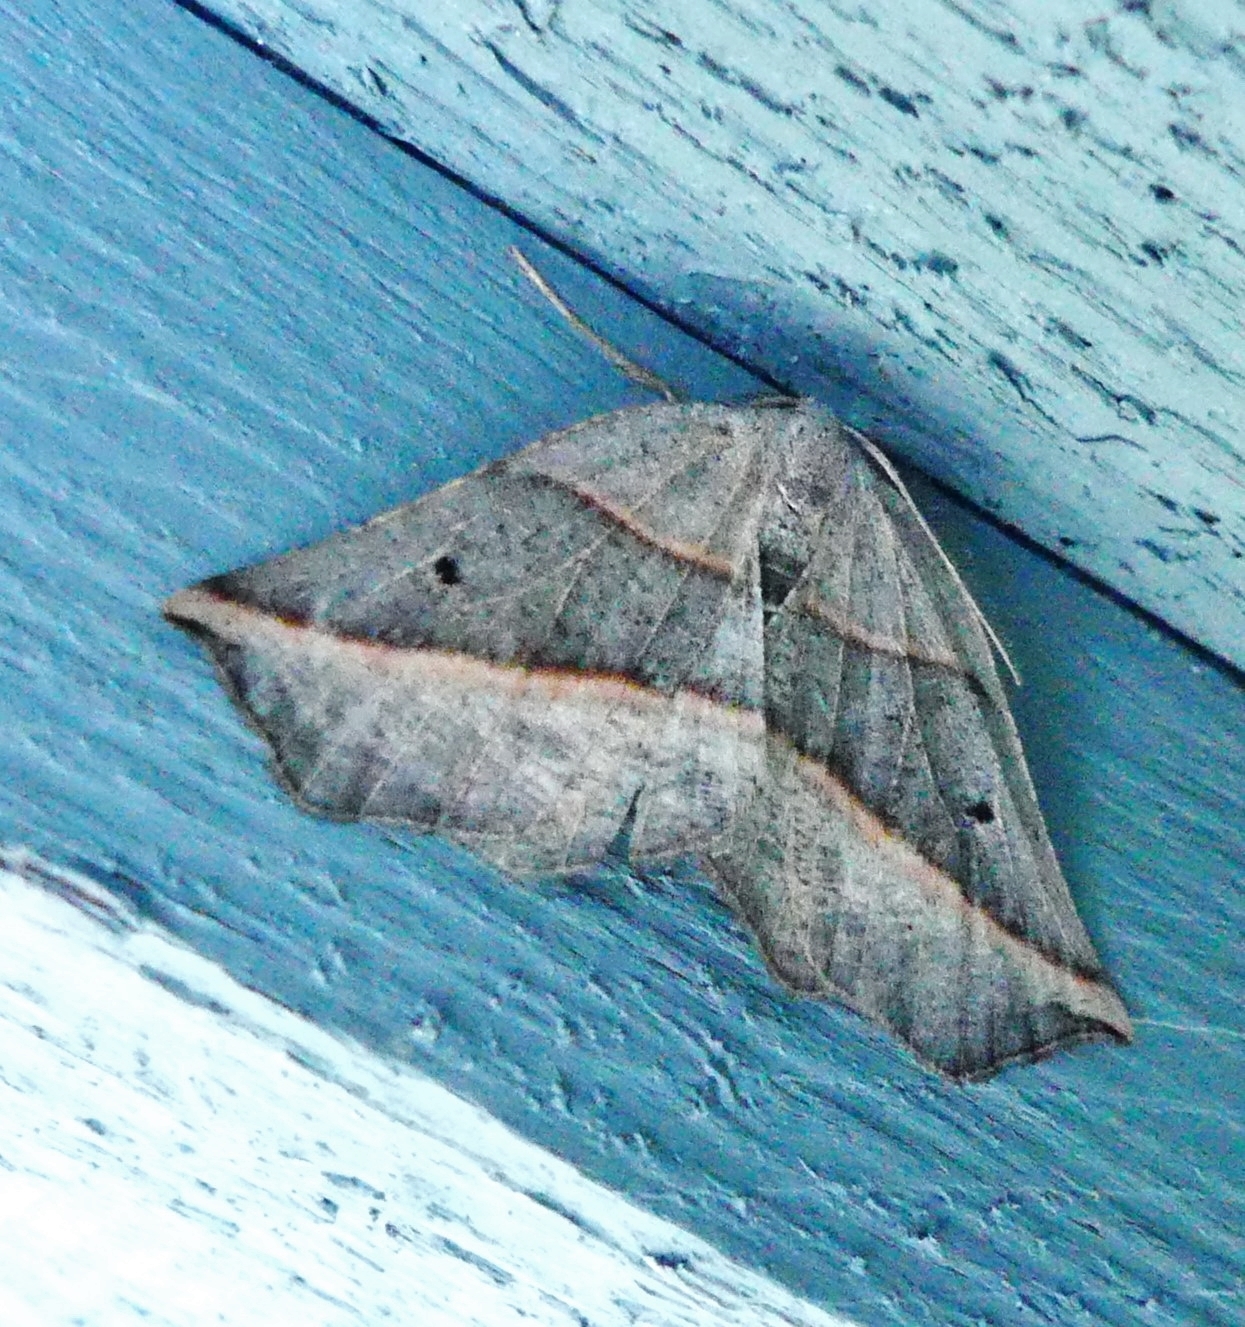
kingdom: Animalia
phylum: Arthropoda
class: Insecta
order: Lepidoptera
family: Geometridae
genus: Metanema
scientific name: Metanema determinata
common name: Dark metanema
